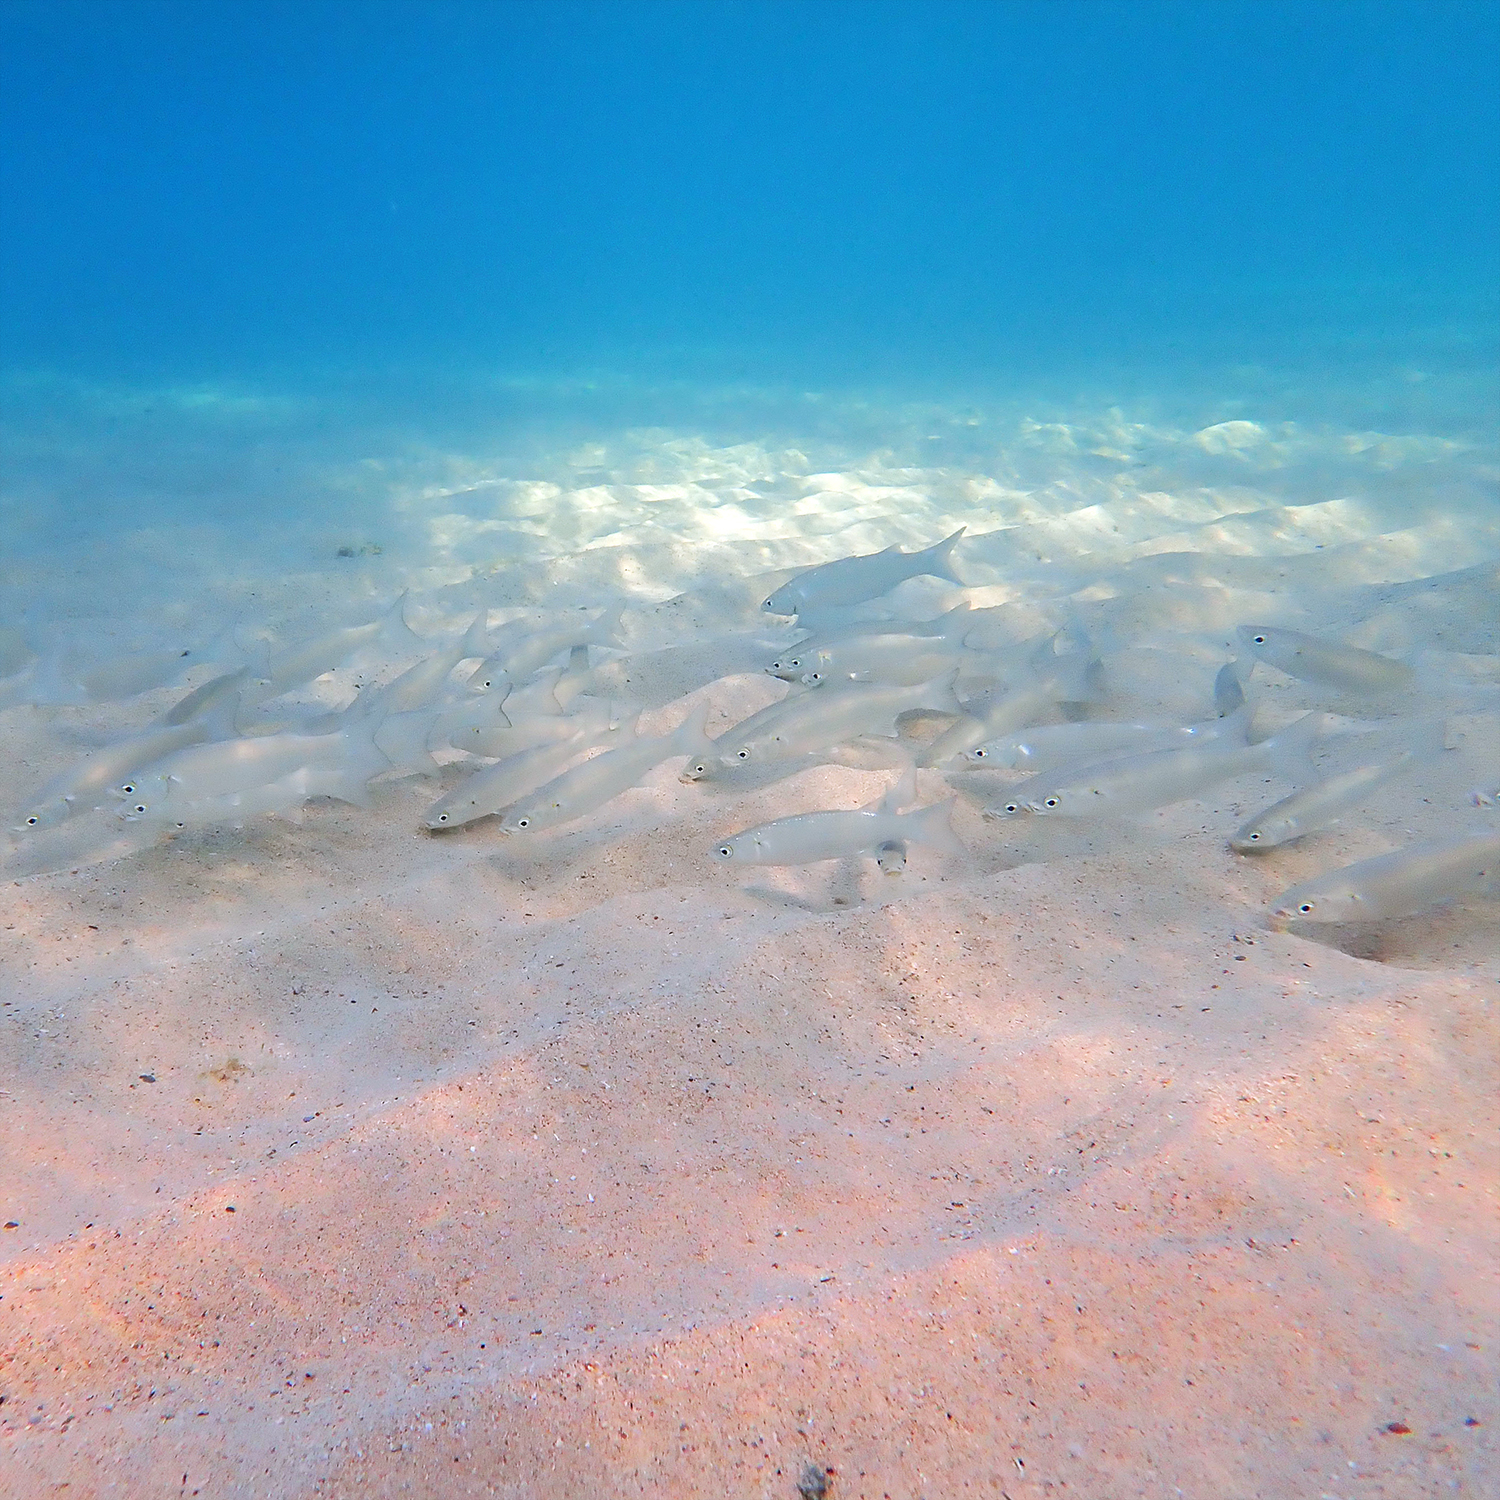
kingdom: Animalia
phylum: Chordata
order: Mugiliformes
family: Mugilidae
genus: Myxus
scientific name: Myxus elongatus
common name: Sand grey mullet
